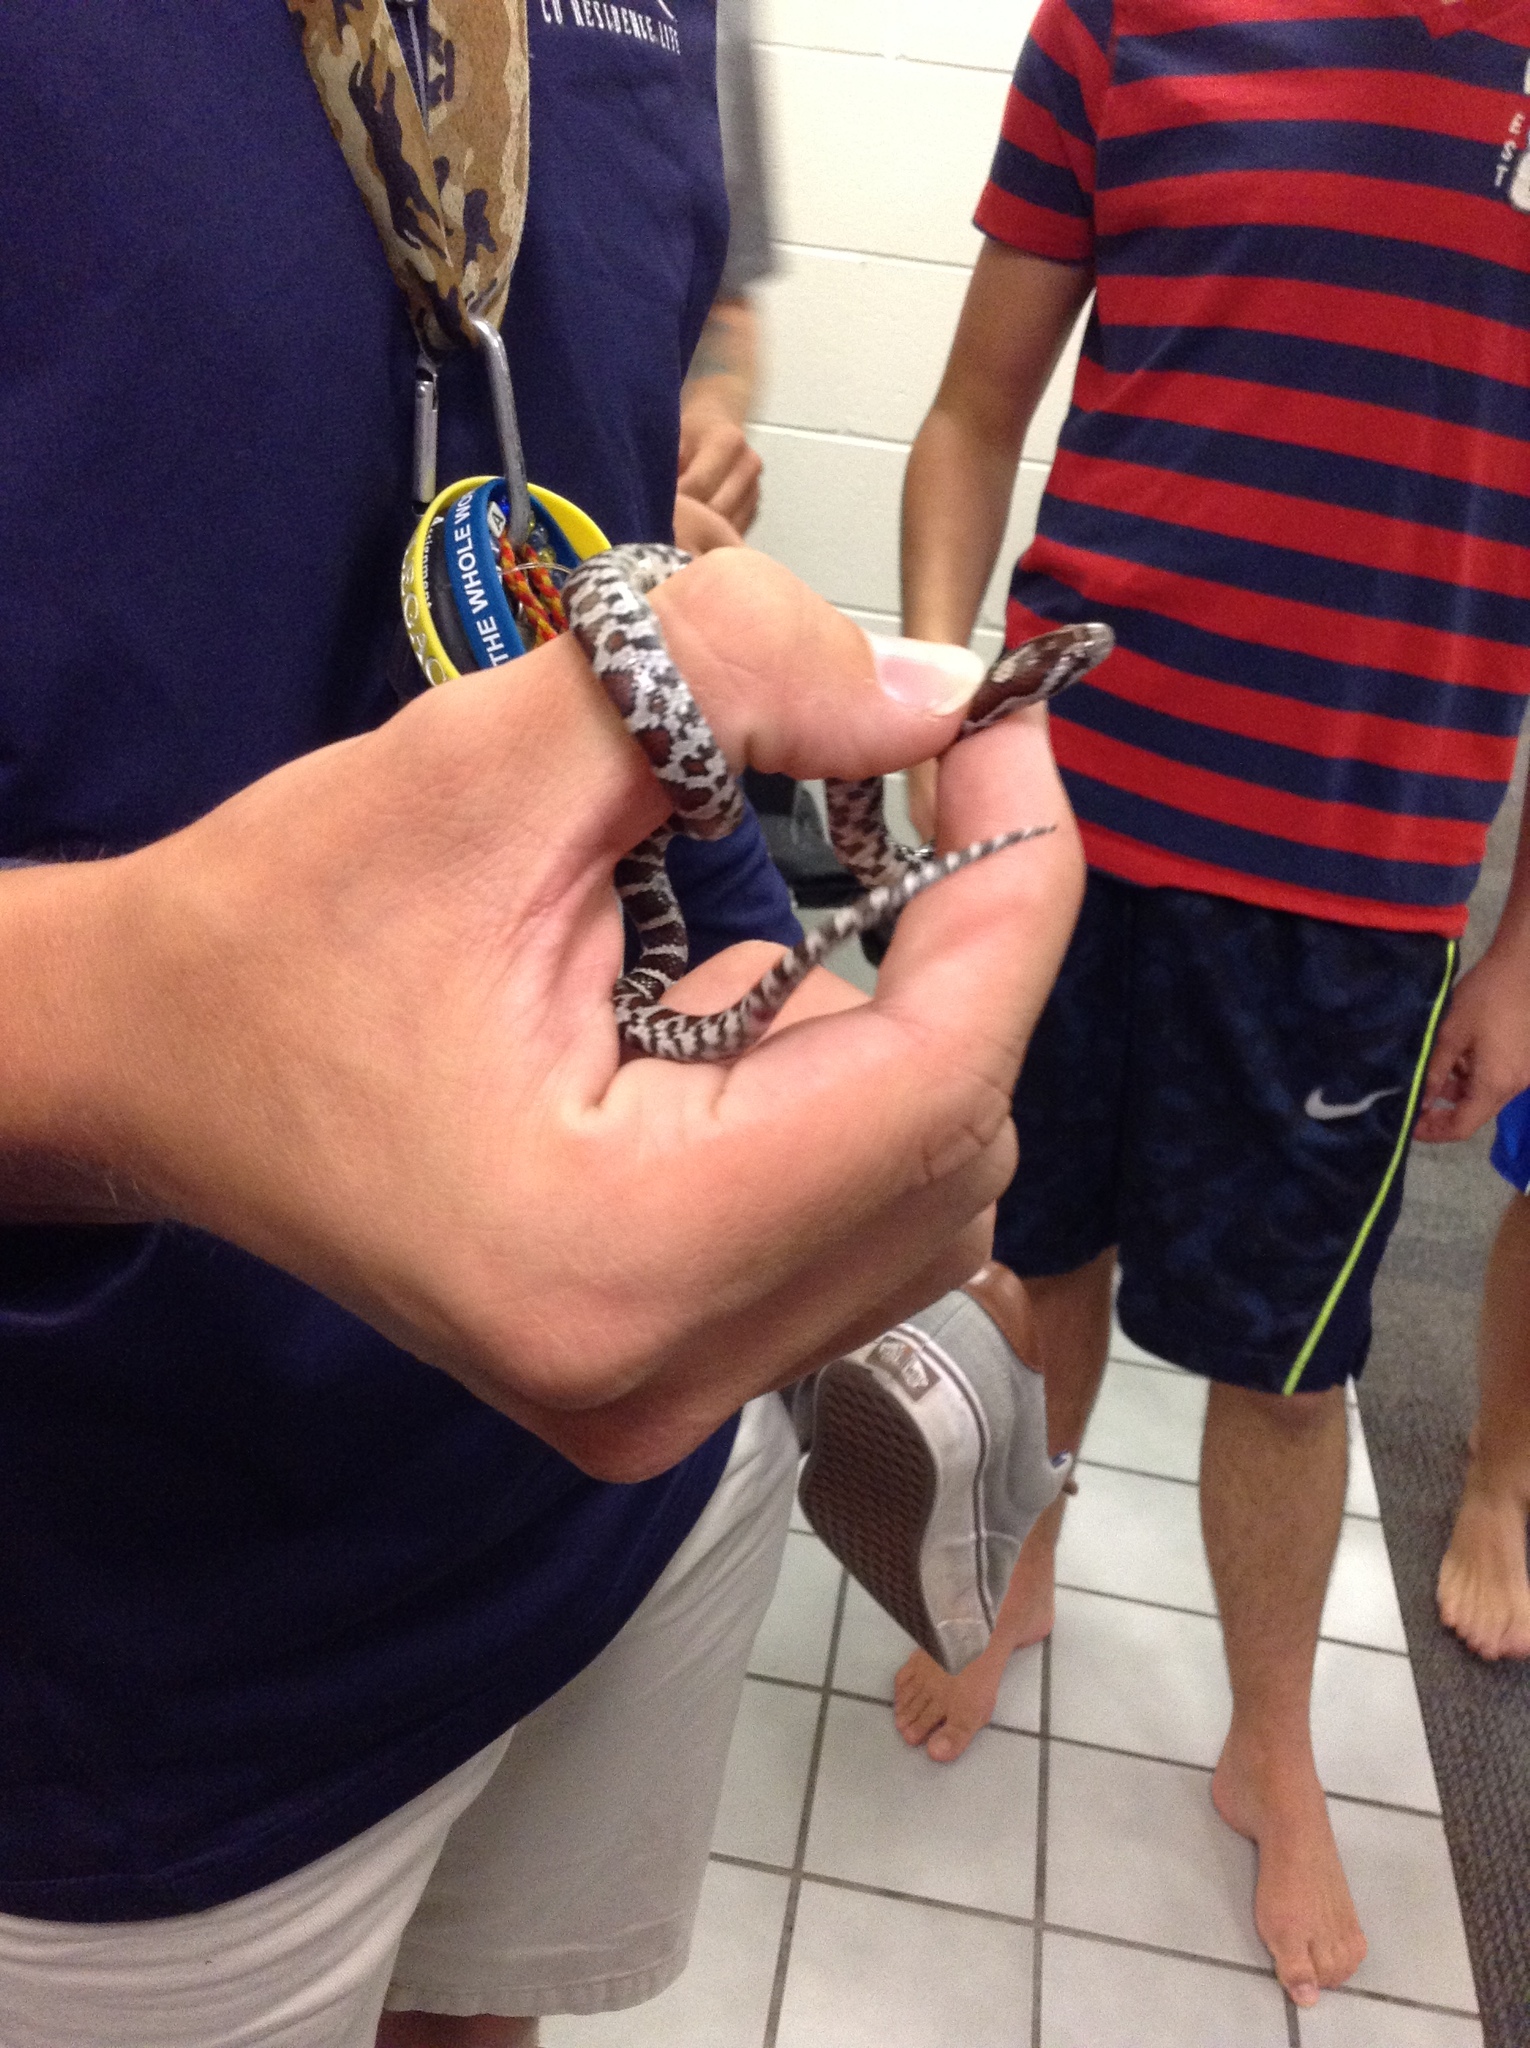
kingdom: Animalia
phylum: Chordata
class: Squamata
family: Colubridae
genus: Lampropeltis
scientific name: Lampropeltis triangulum
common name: Eastern milksnake
